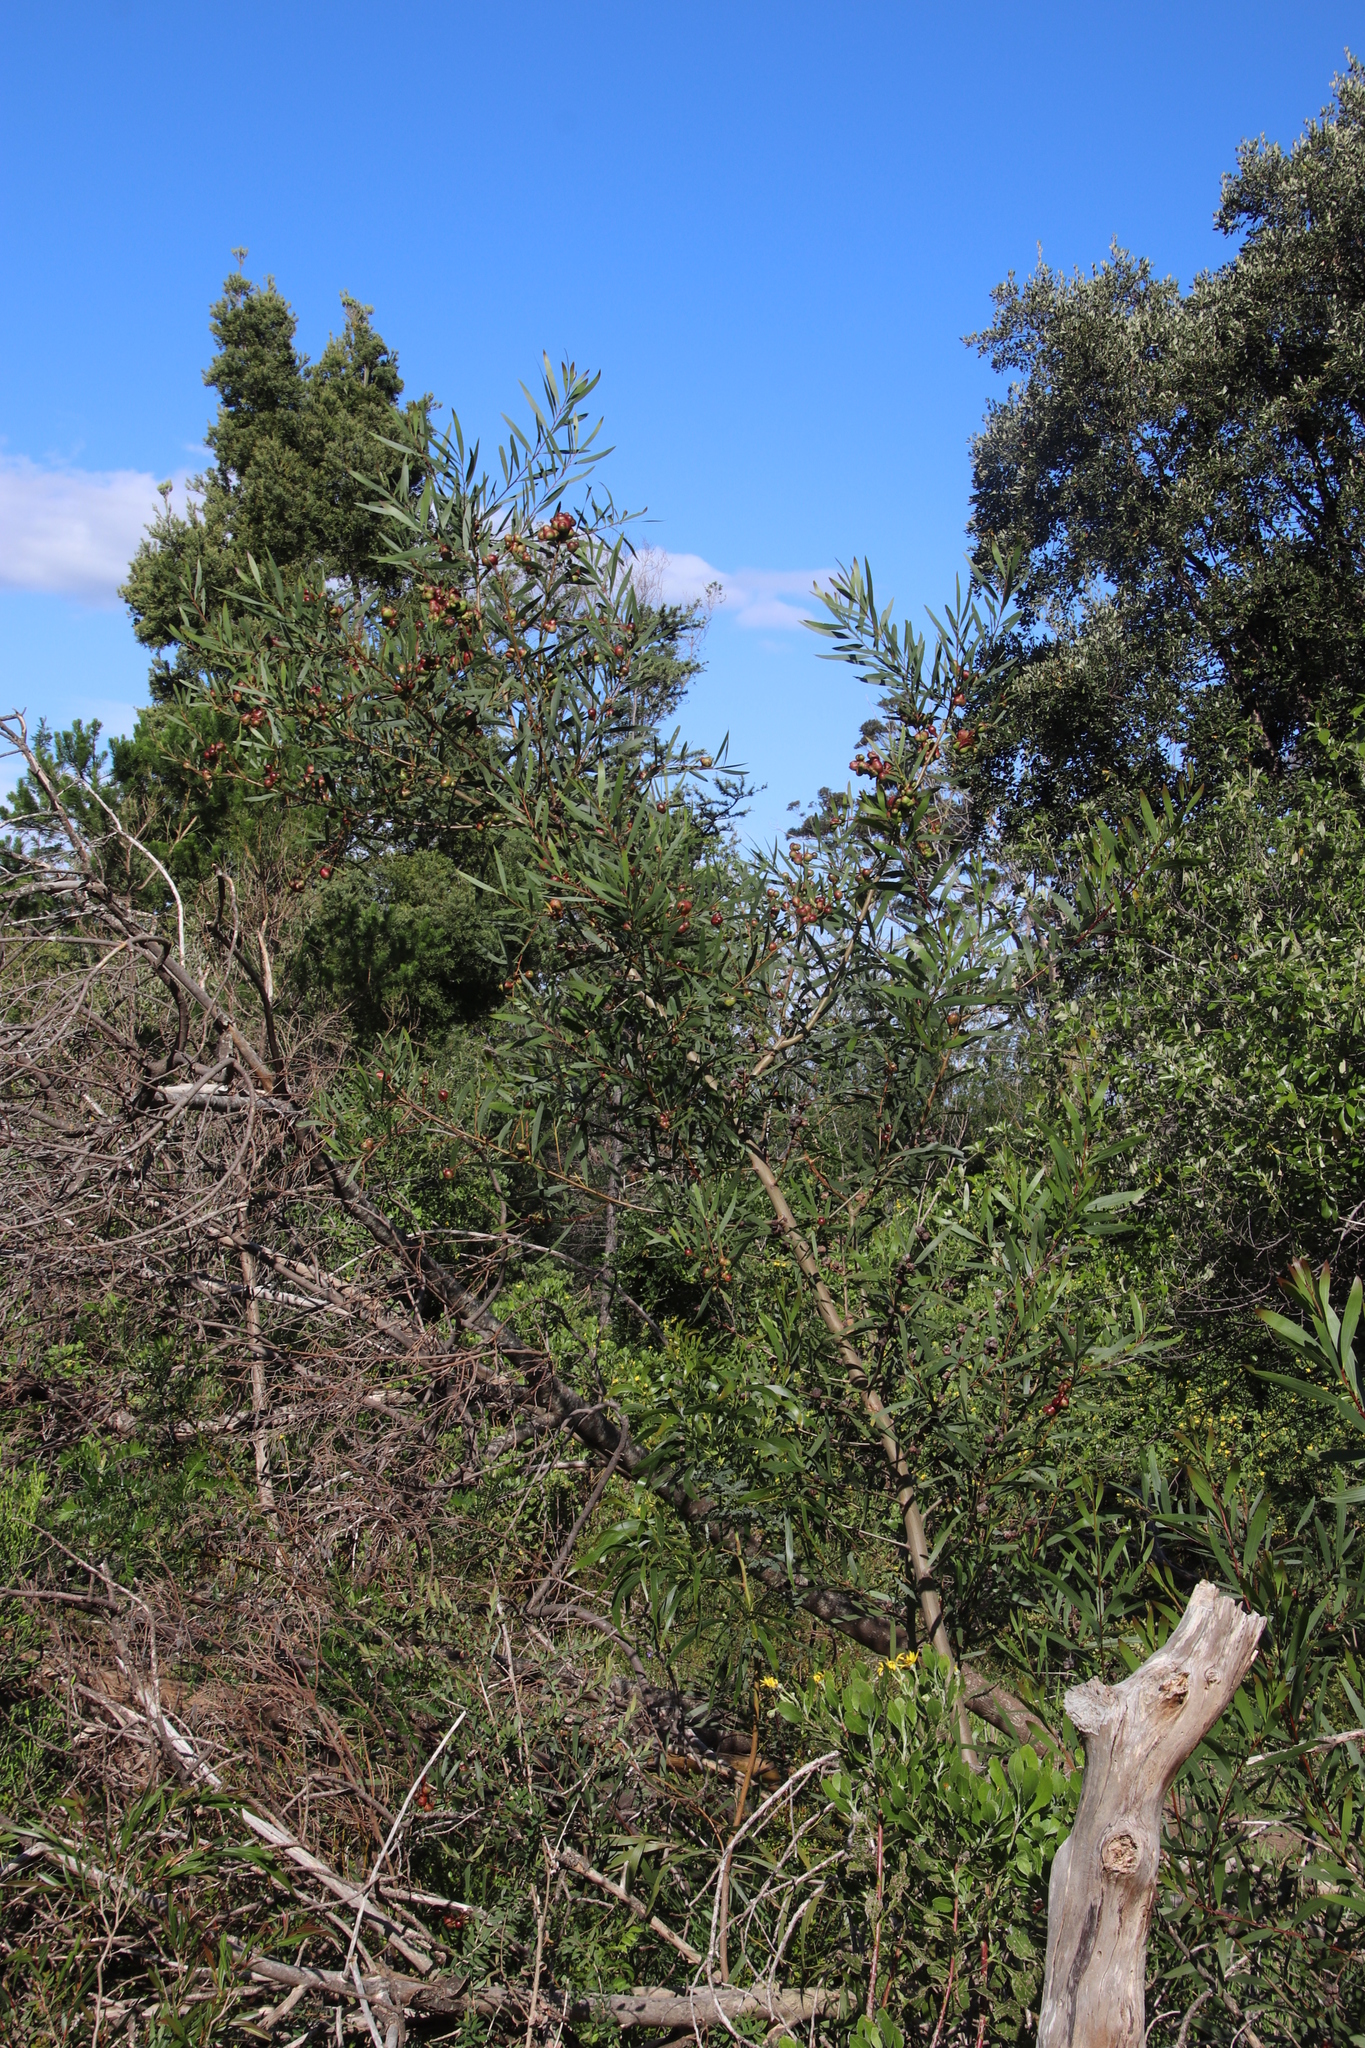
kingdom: Plantae
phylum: Tracheophyta
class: Magnoliopsida
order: Fabales
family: Fabaceae
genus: Acacia
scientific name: Acacia longifolia
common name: Sydney golden wattle
